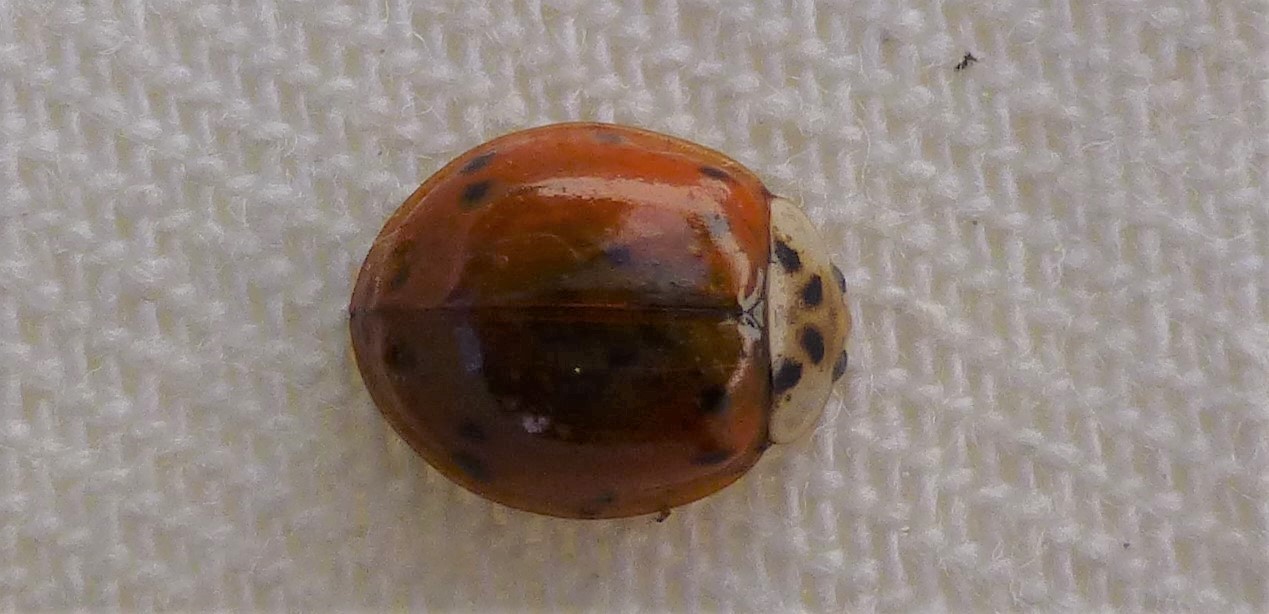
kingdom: Animalia
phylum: Arthropoda
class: Insecta
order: Coleoptera
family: Coccinellidae
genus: Harmonia
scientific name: Harmonia axyridis
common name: Harlequin ladybird
